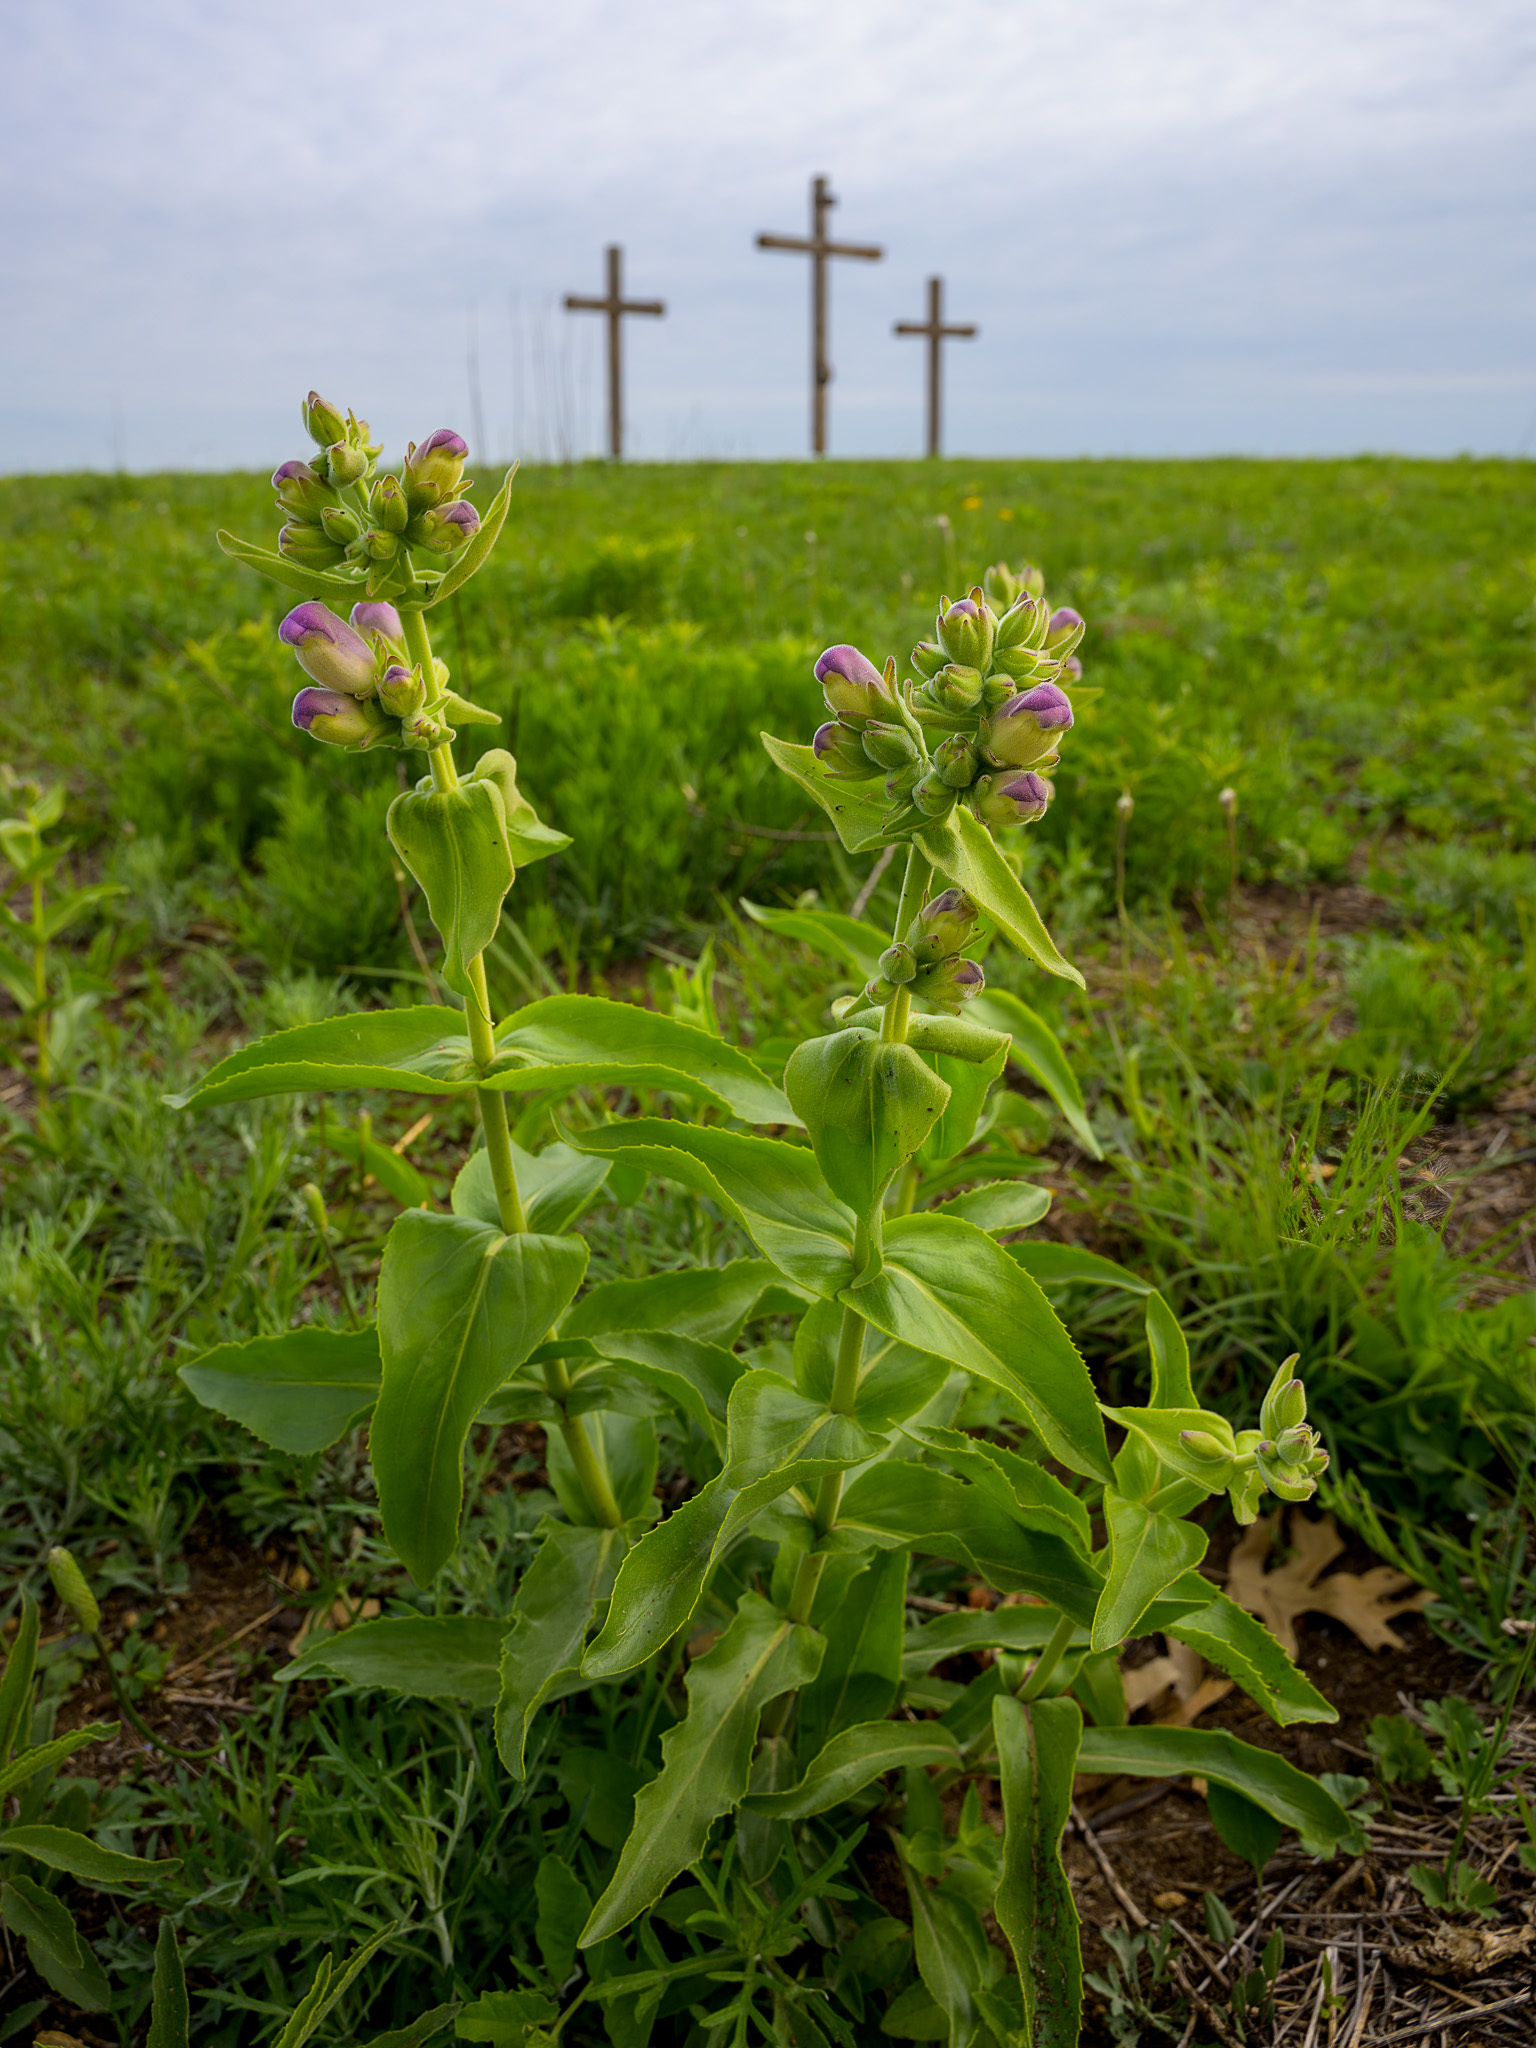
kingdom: Plantae
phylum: Tracheophyta
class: Magnoliopsida
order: Lamiales
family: Plantaginaceae
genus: Penstemon
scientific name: Penstemon cobaea
